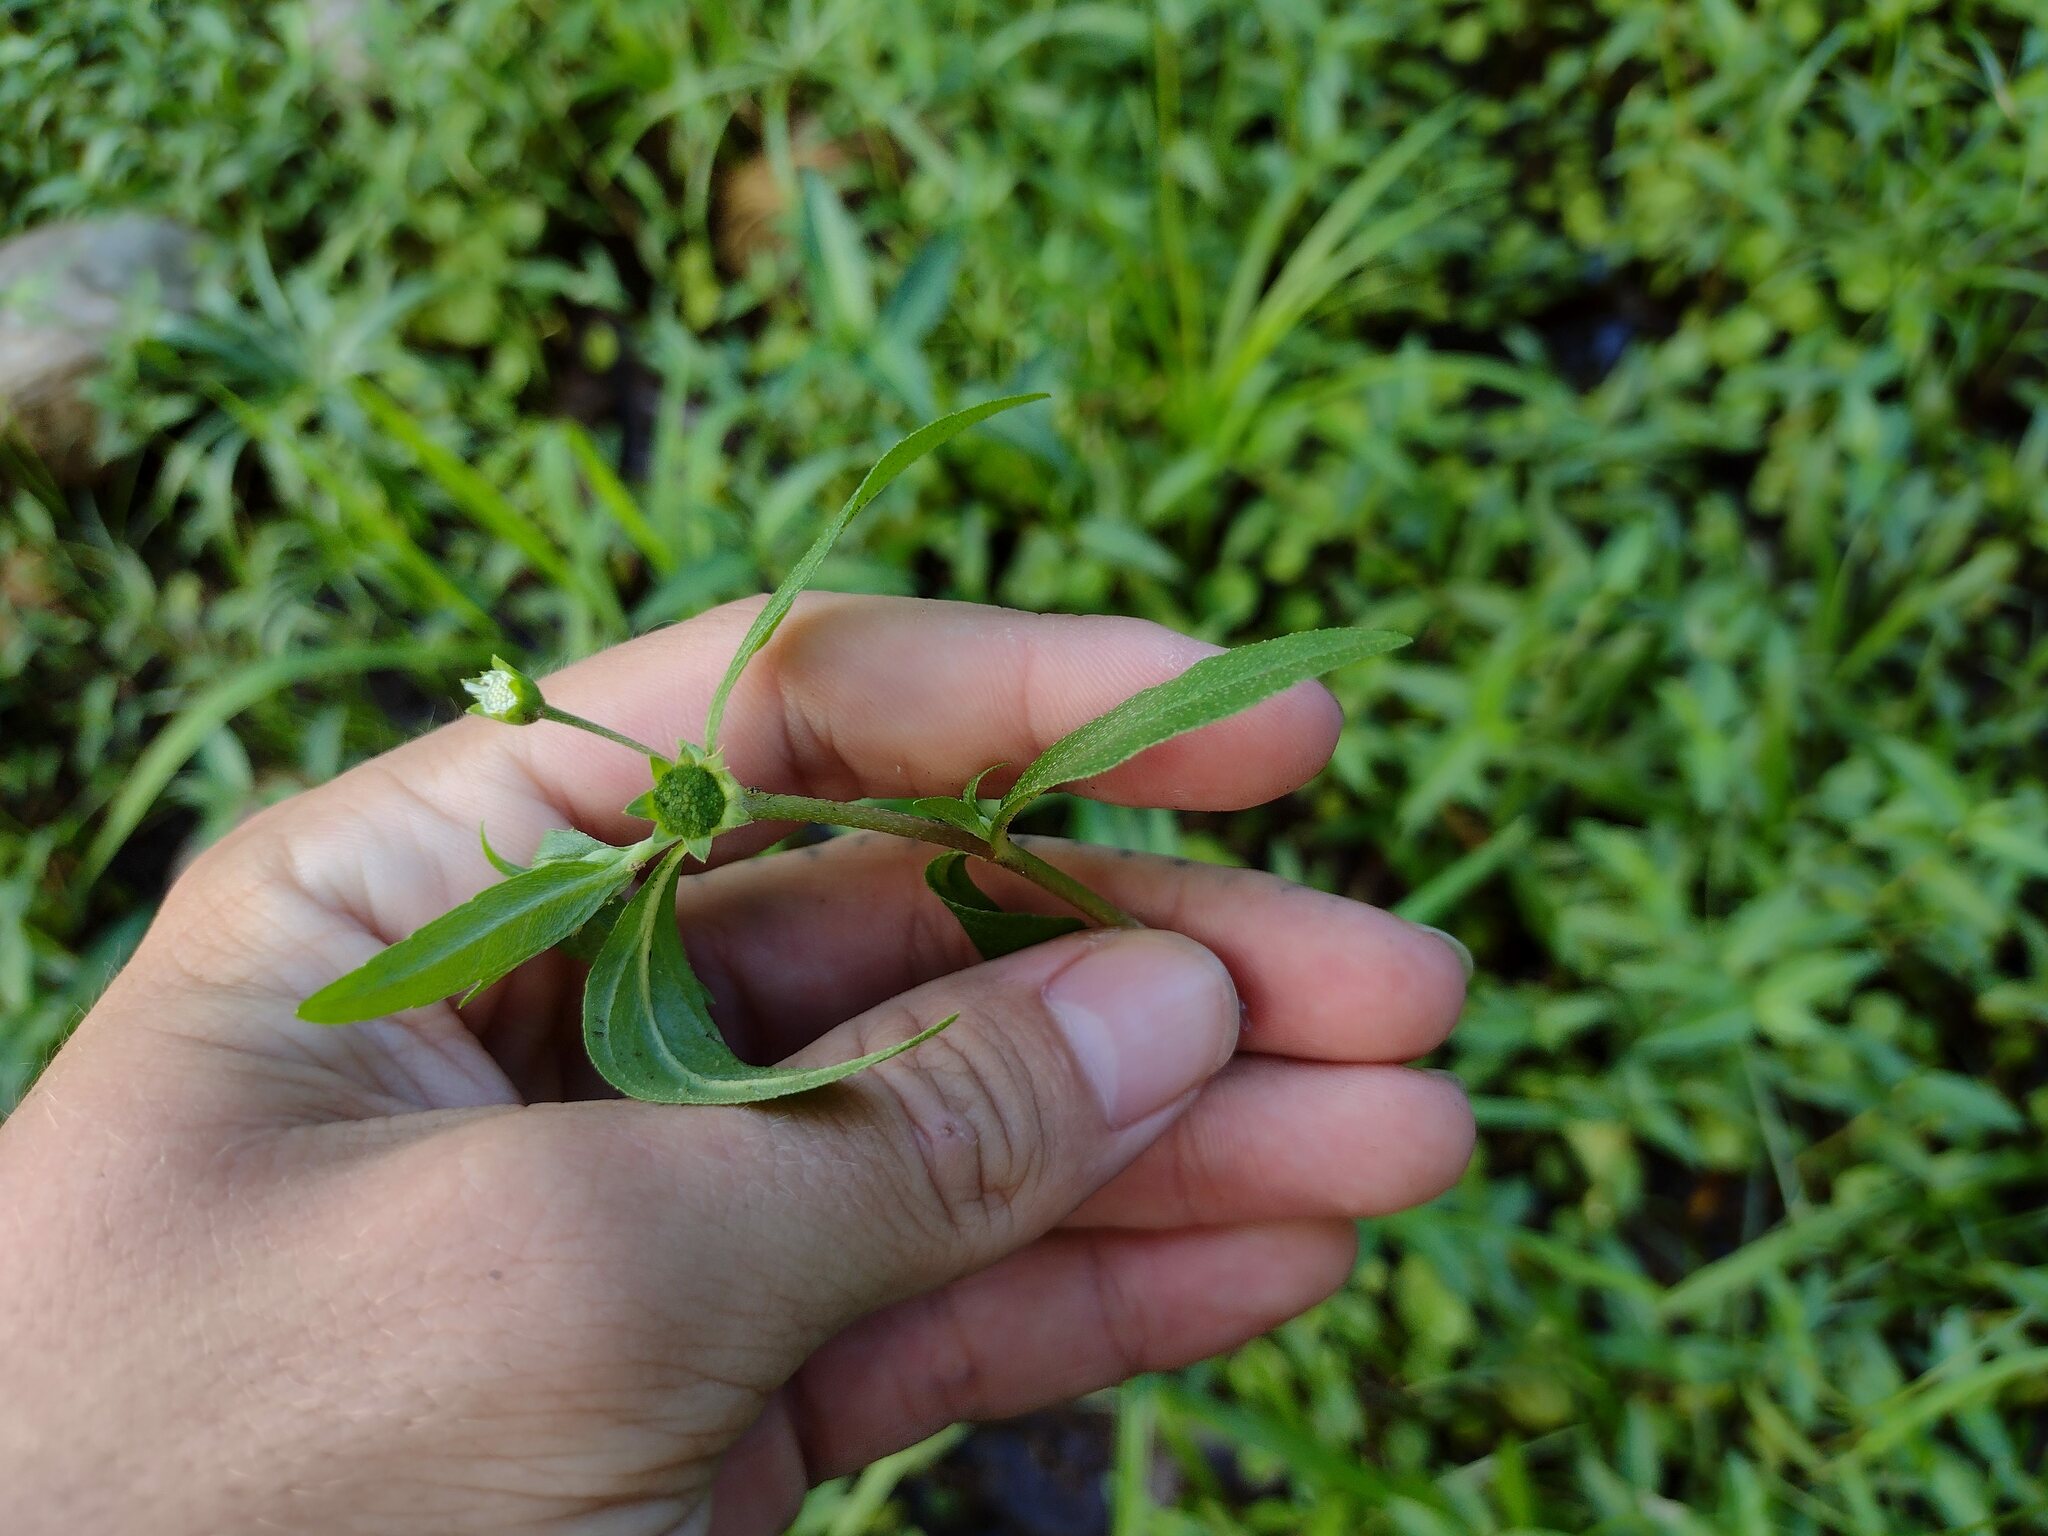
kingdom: Plantae
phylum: Tracheophyta
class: Magnoliopsida
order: Asterales
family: Asteraceae
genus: Eclipta
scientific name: Eclipta prostrata
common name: False daisy
